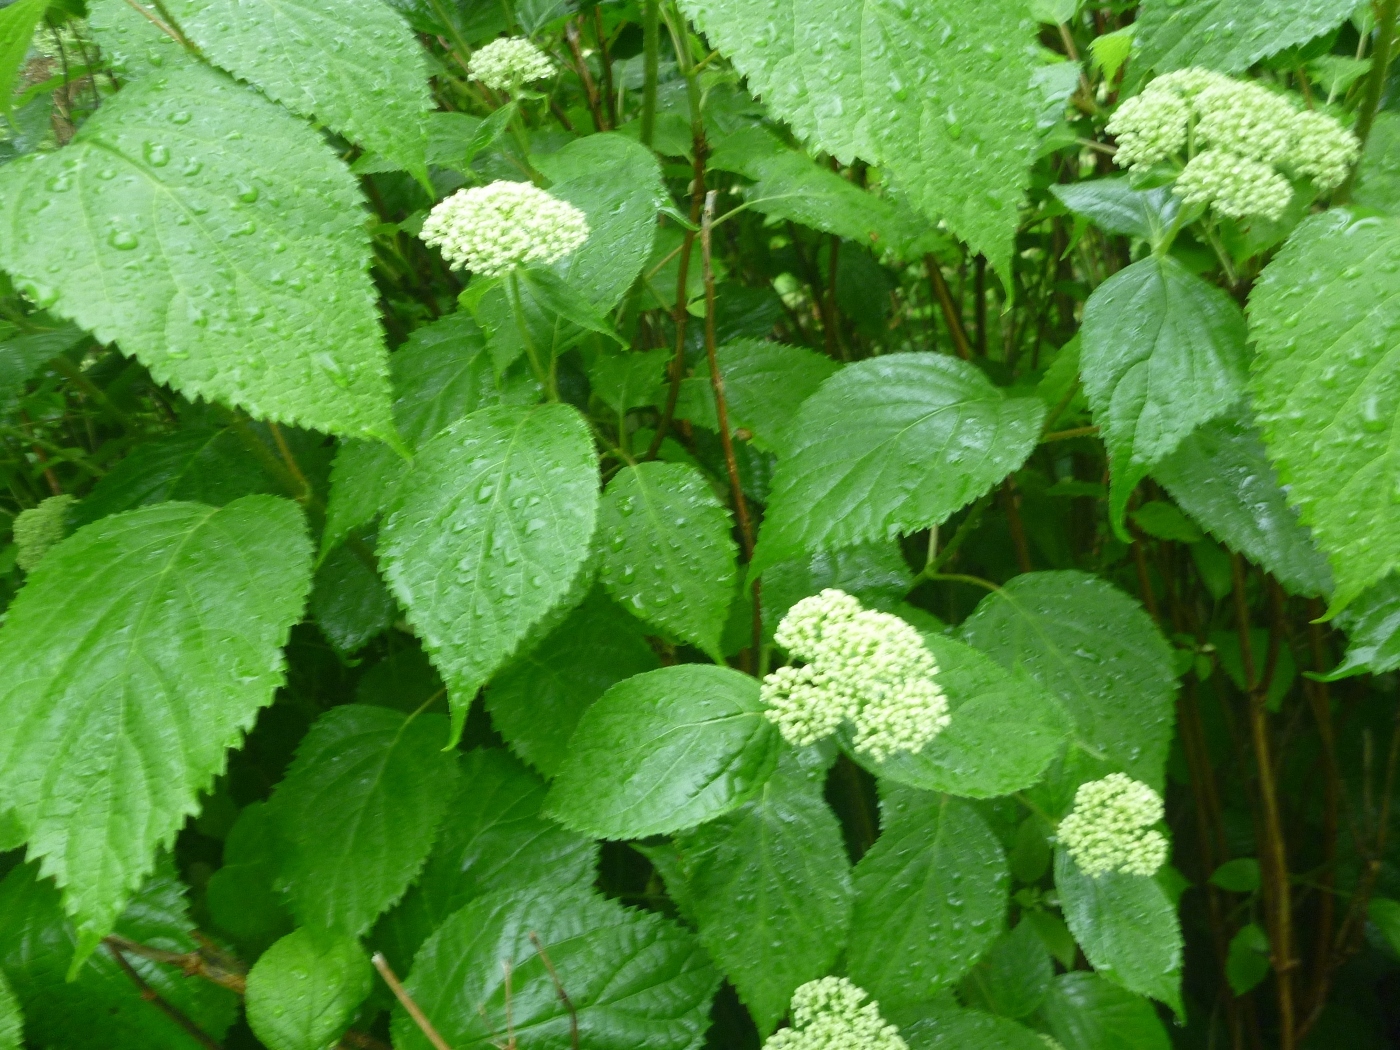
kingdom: Plantae
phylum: Tracheophyta
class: Magnoliopsida
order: Cornales
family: Hydrangeaceae
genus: Hydrangea
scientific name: Hydrangea arborescens
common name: Sevenbark
